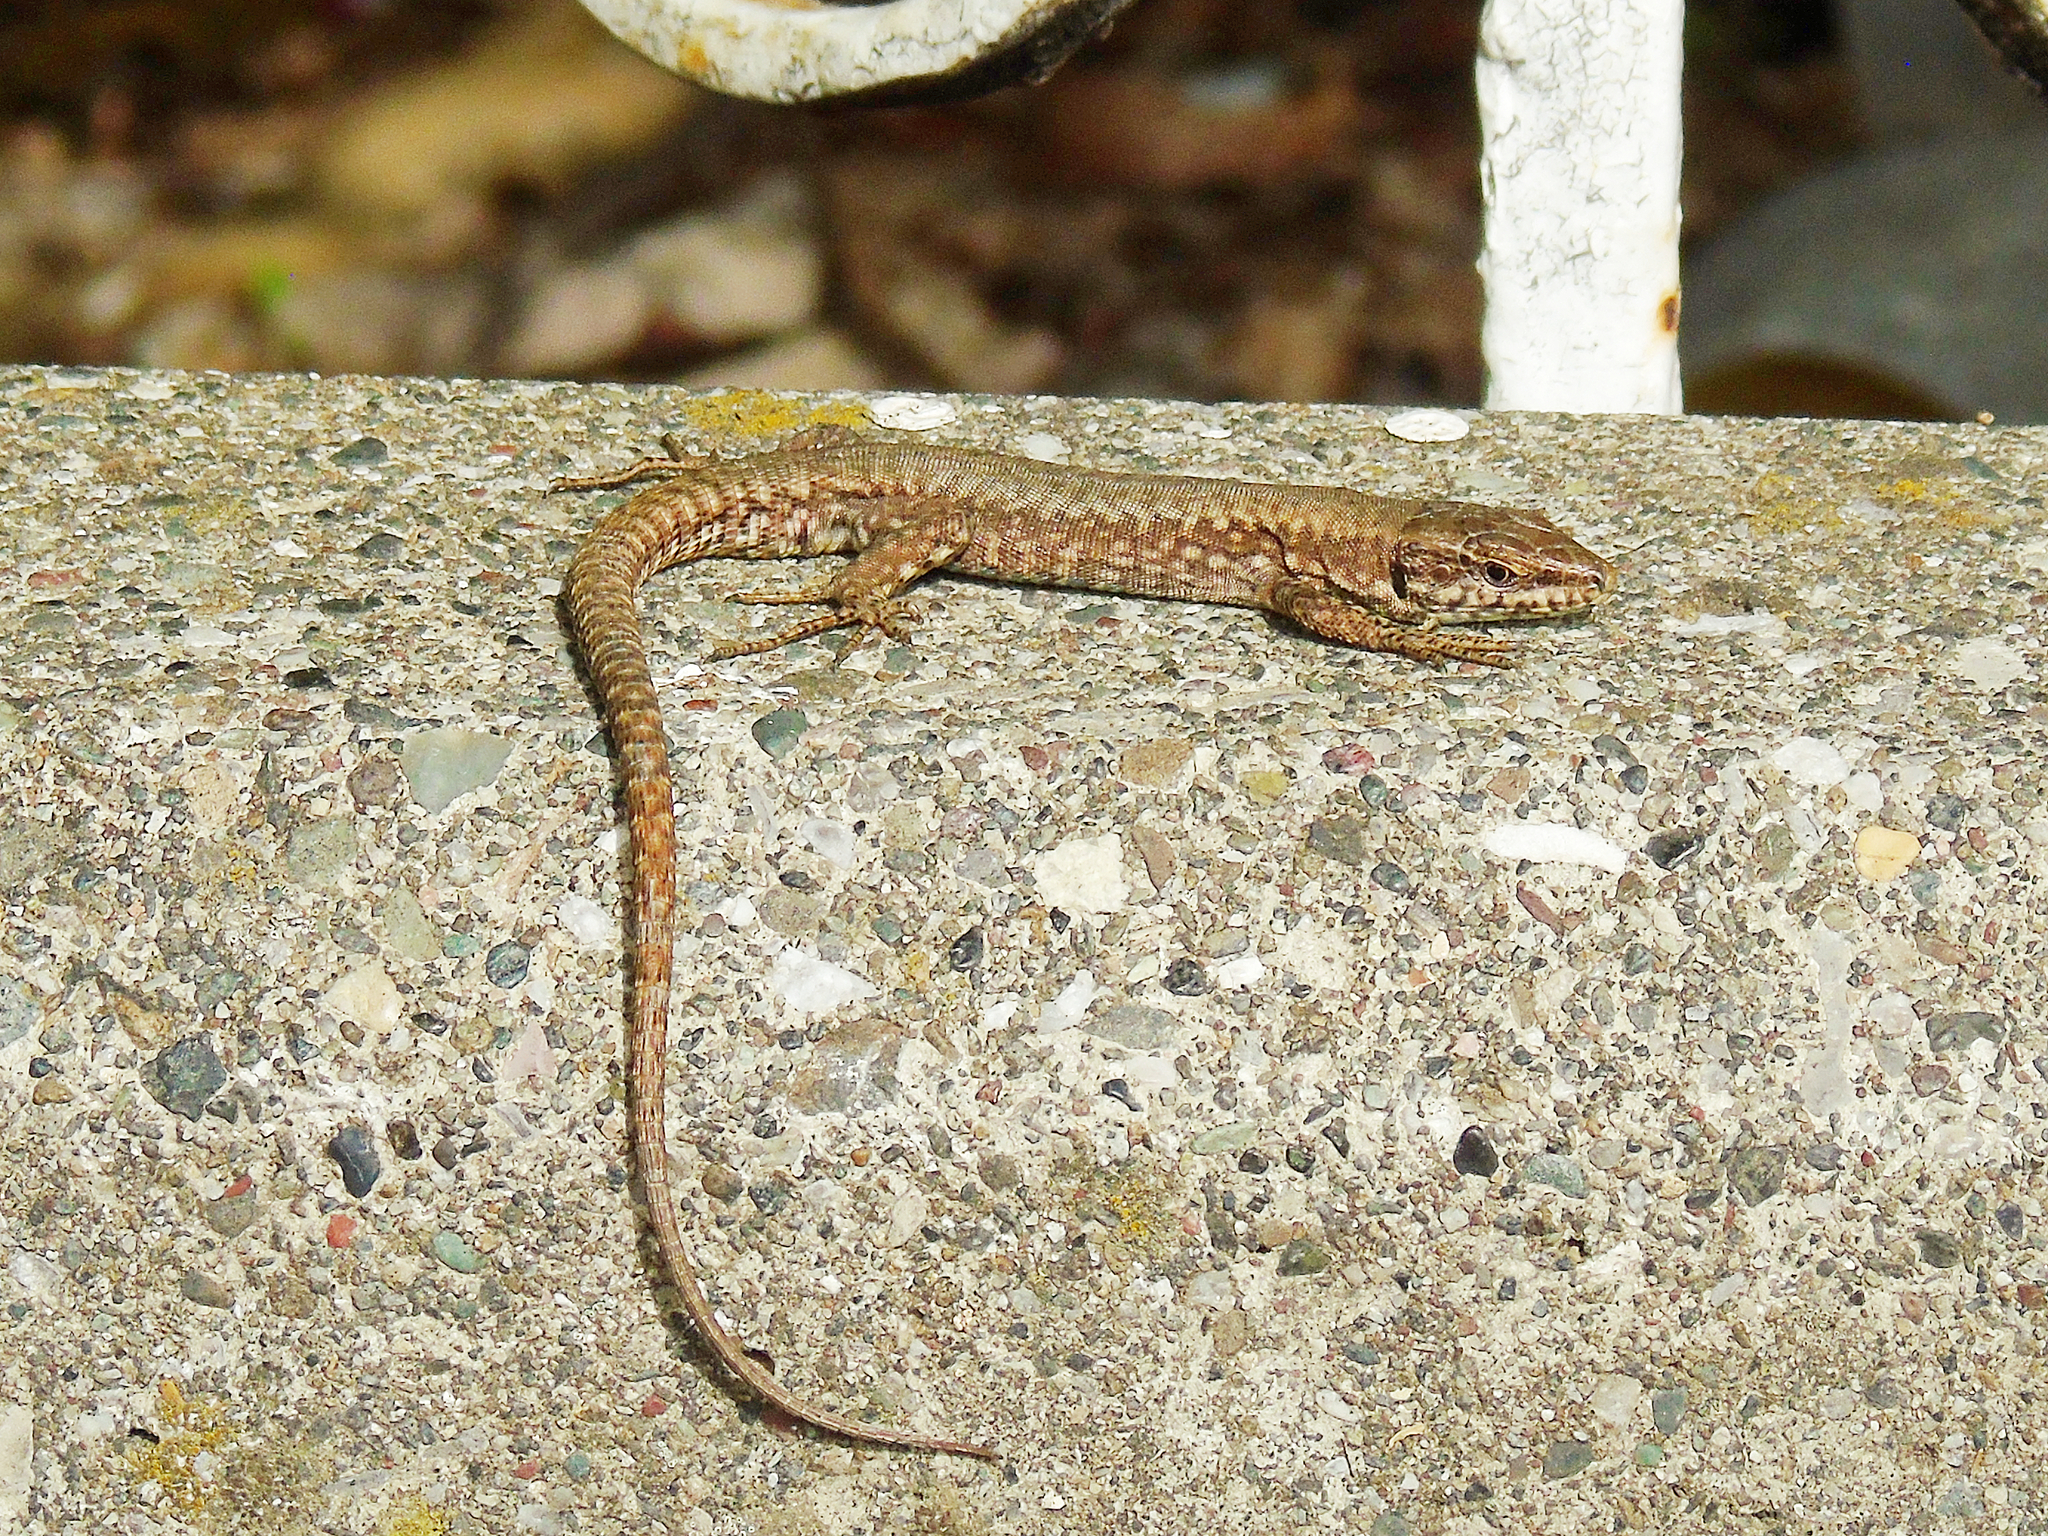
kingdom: Animalia
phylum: Chordata
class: Squamata
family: Lacertidae
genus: Podarcis
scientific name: Podarcis muralis
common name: Common wall lizard
